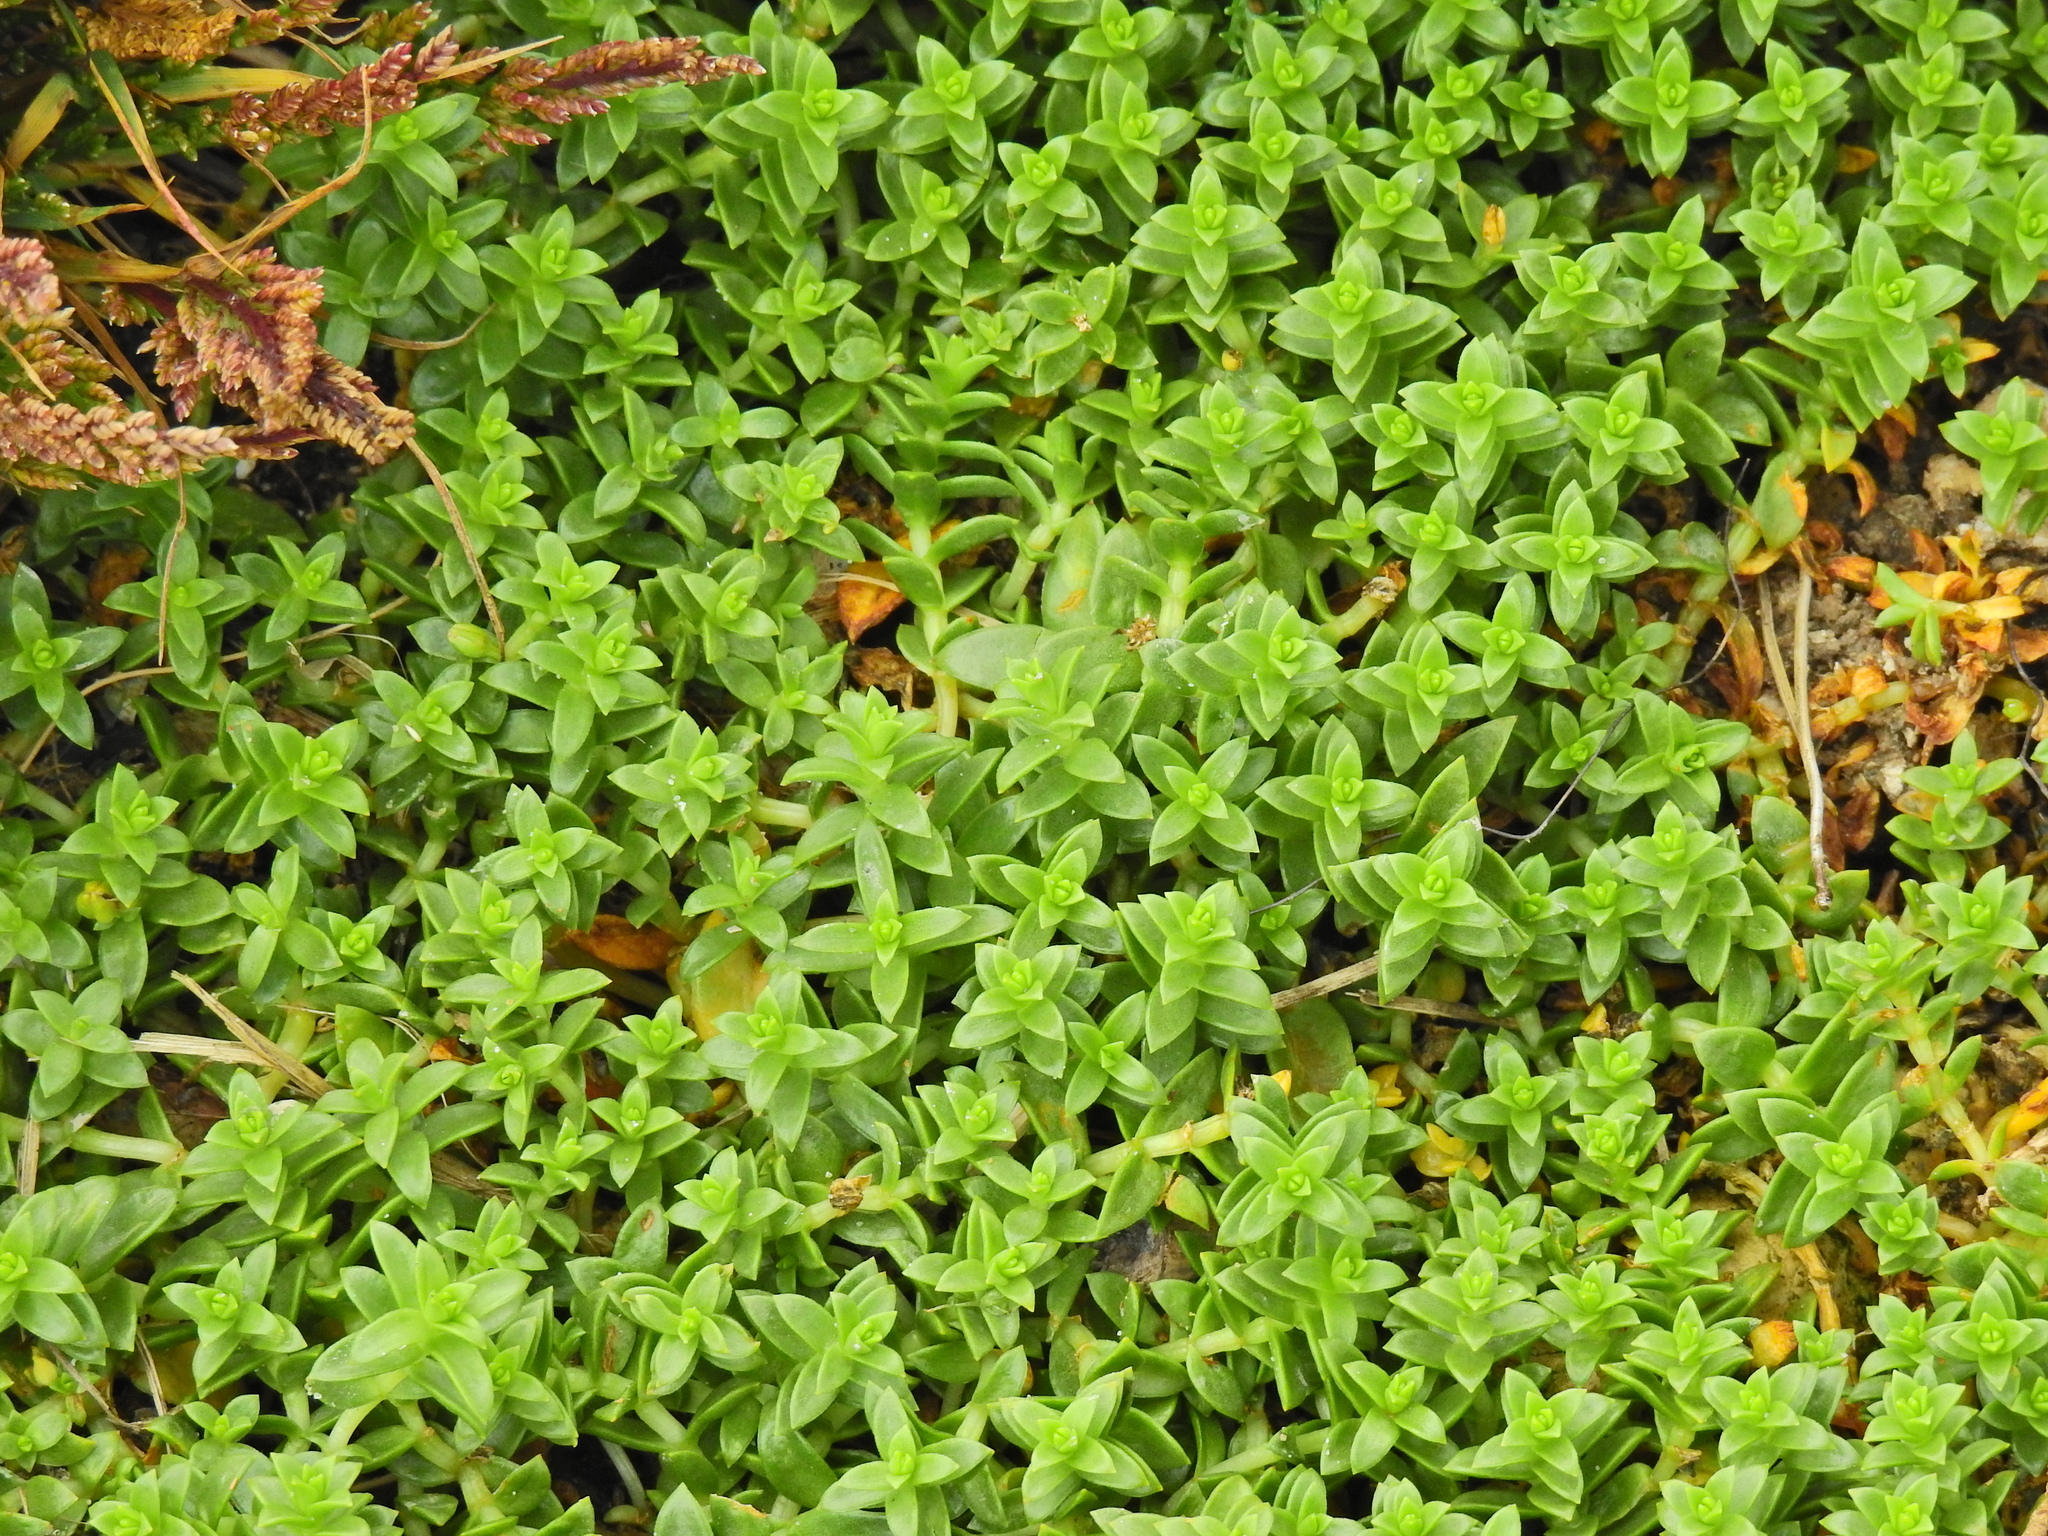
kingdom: Plantae
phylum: Tracheophyta
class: Magnoliopsida
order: Caryophyllales
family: Caryophyllaceae
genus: Honckenya
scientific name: Honckenya peploides
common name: Sea sandwort
